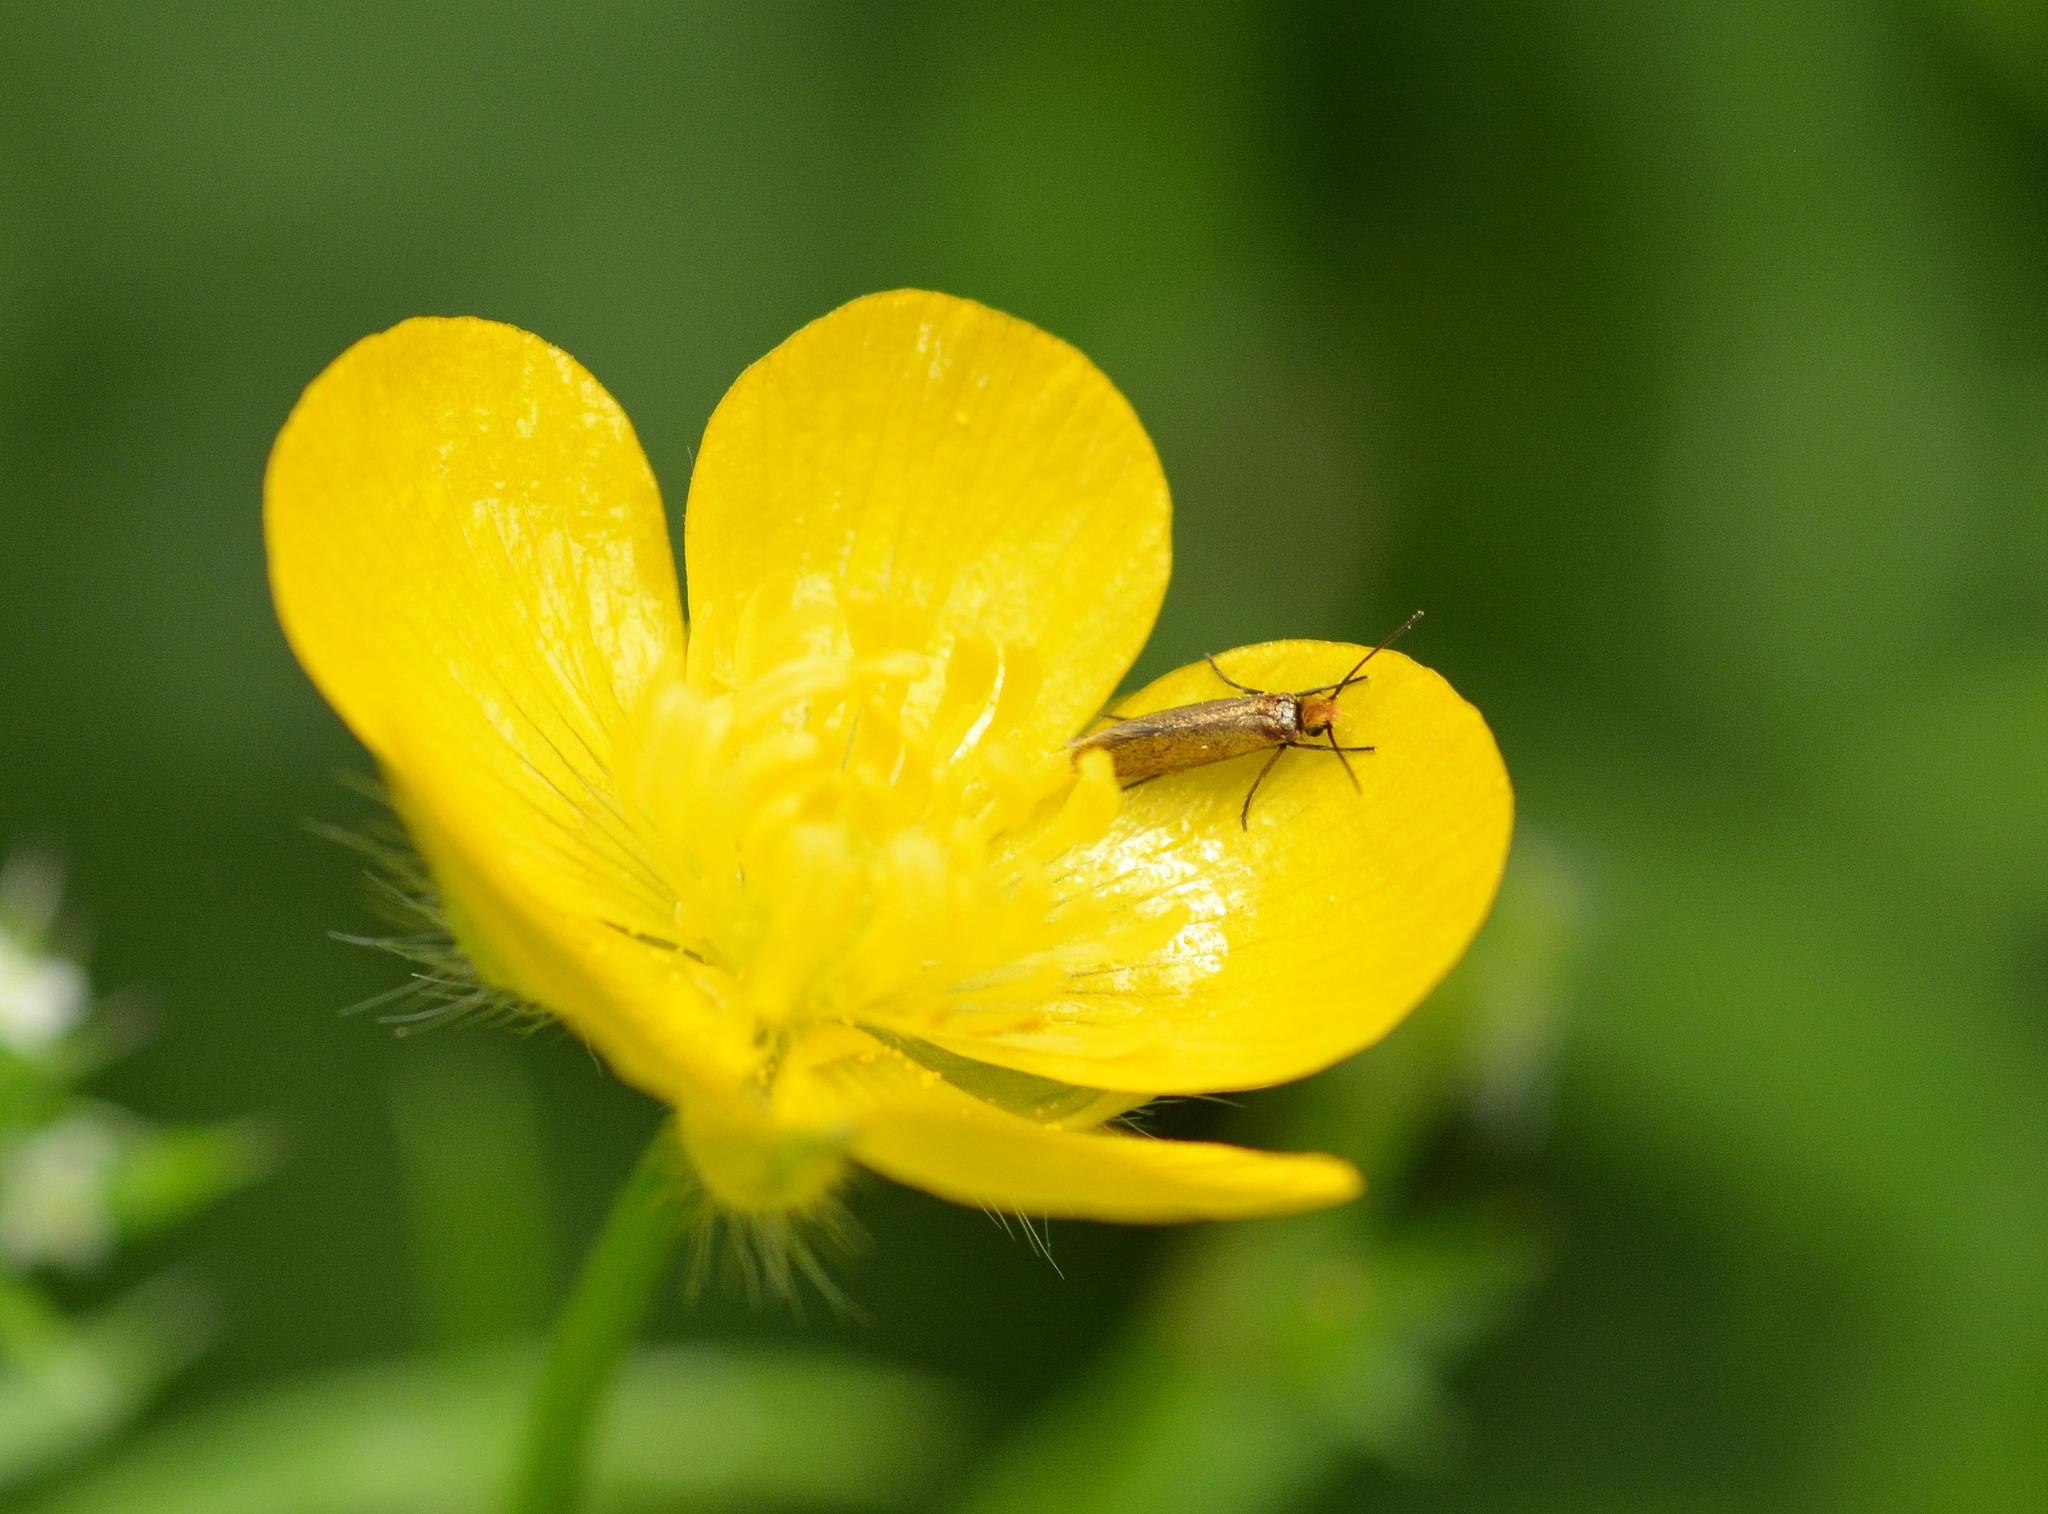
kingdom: Animalia
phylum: Arthropoda
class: Insecta
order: Lepidoptera
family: Micropterigidae
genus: Micropterix
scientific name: Micropterix calthella
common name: Plain gold
